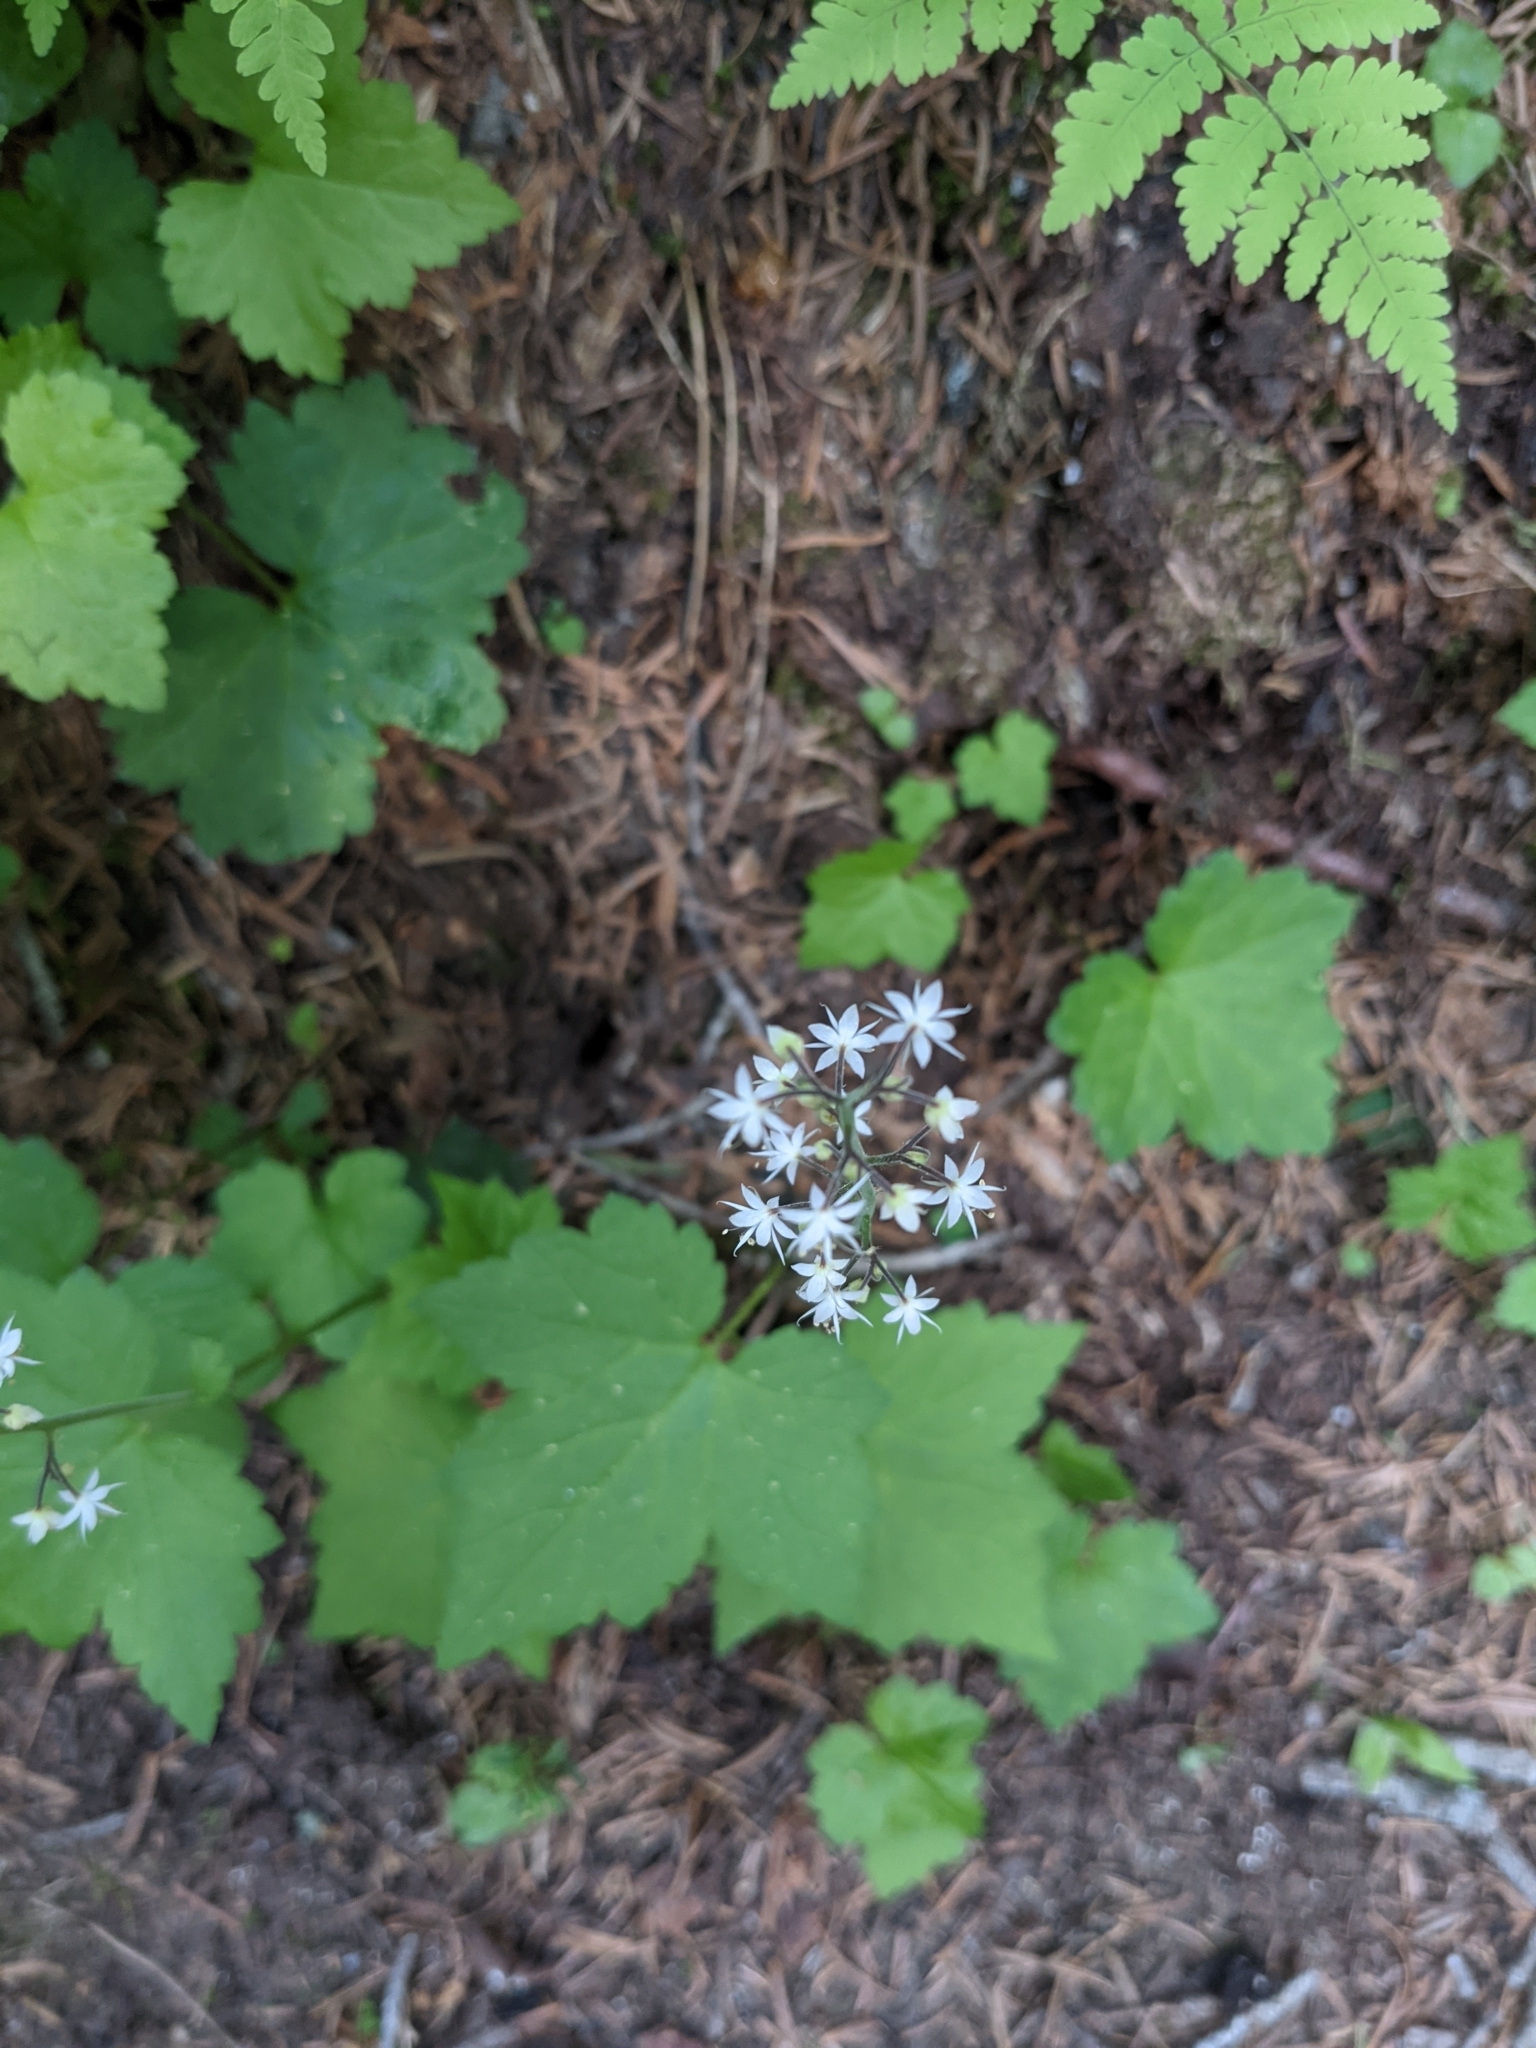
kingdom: Plantae
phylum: Tracheophyta
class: Magnoliopsida
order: Saxifragales
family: Saxifragaceae
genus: Tiarella
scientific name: Tiarella trifoliata
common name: Sugar-scoop
